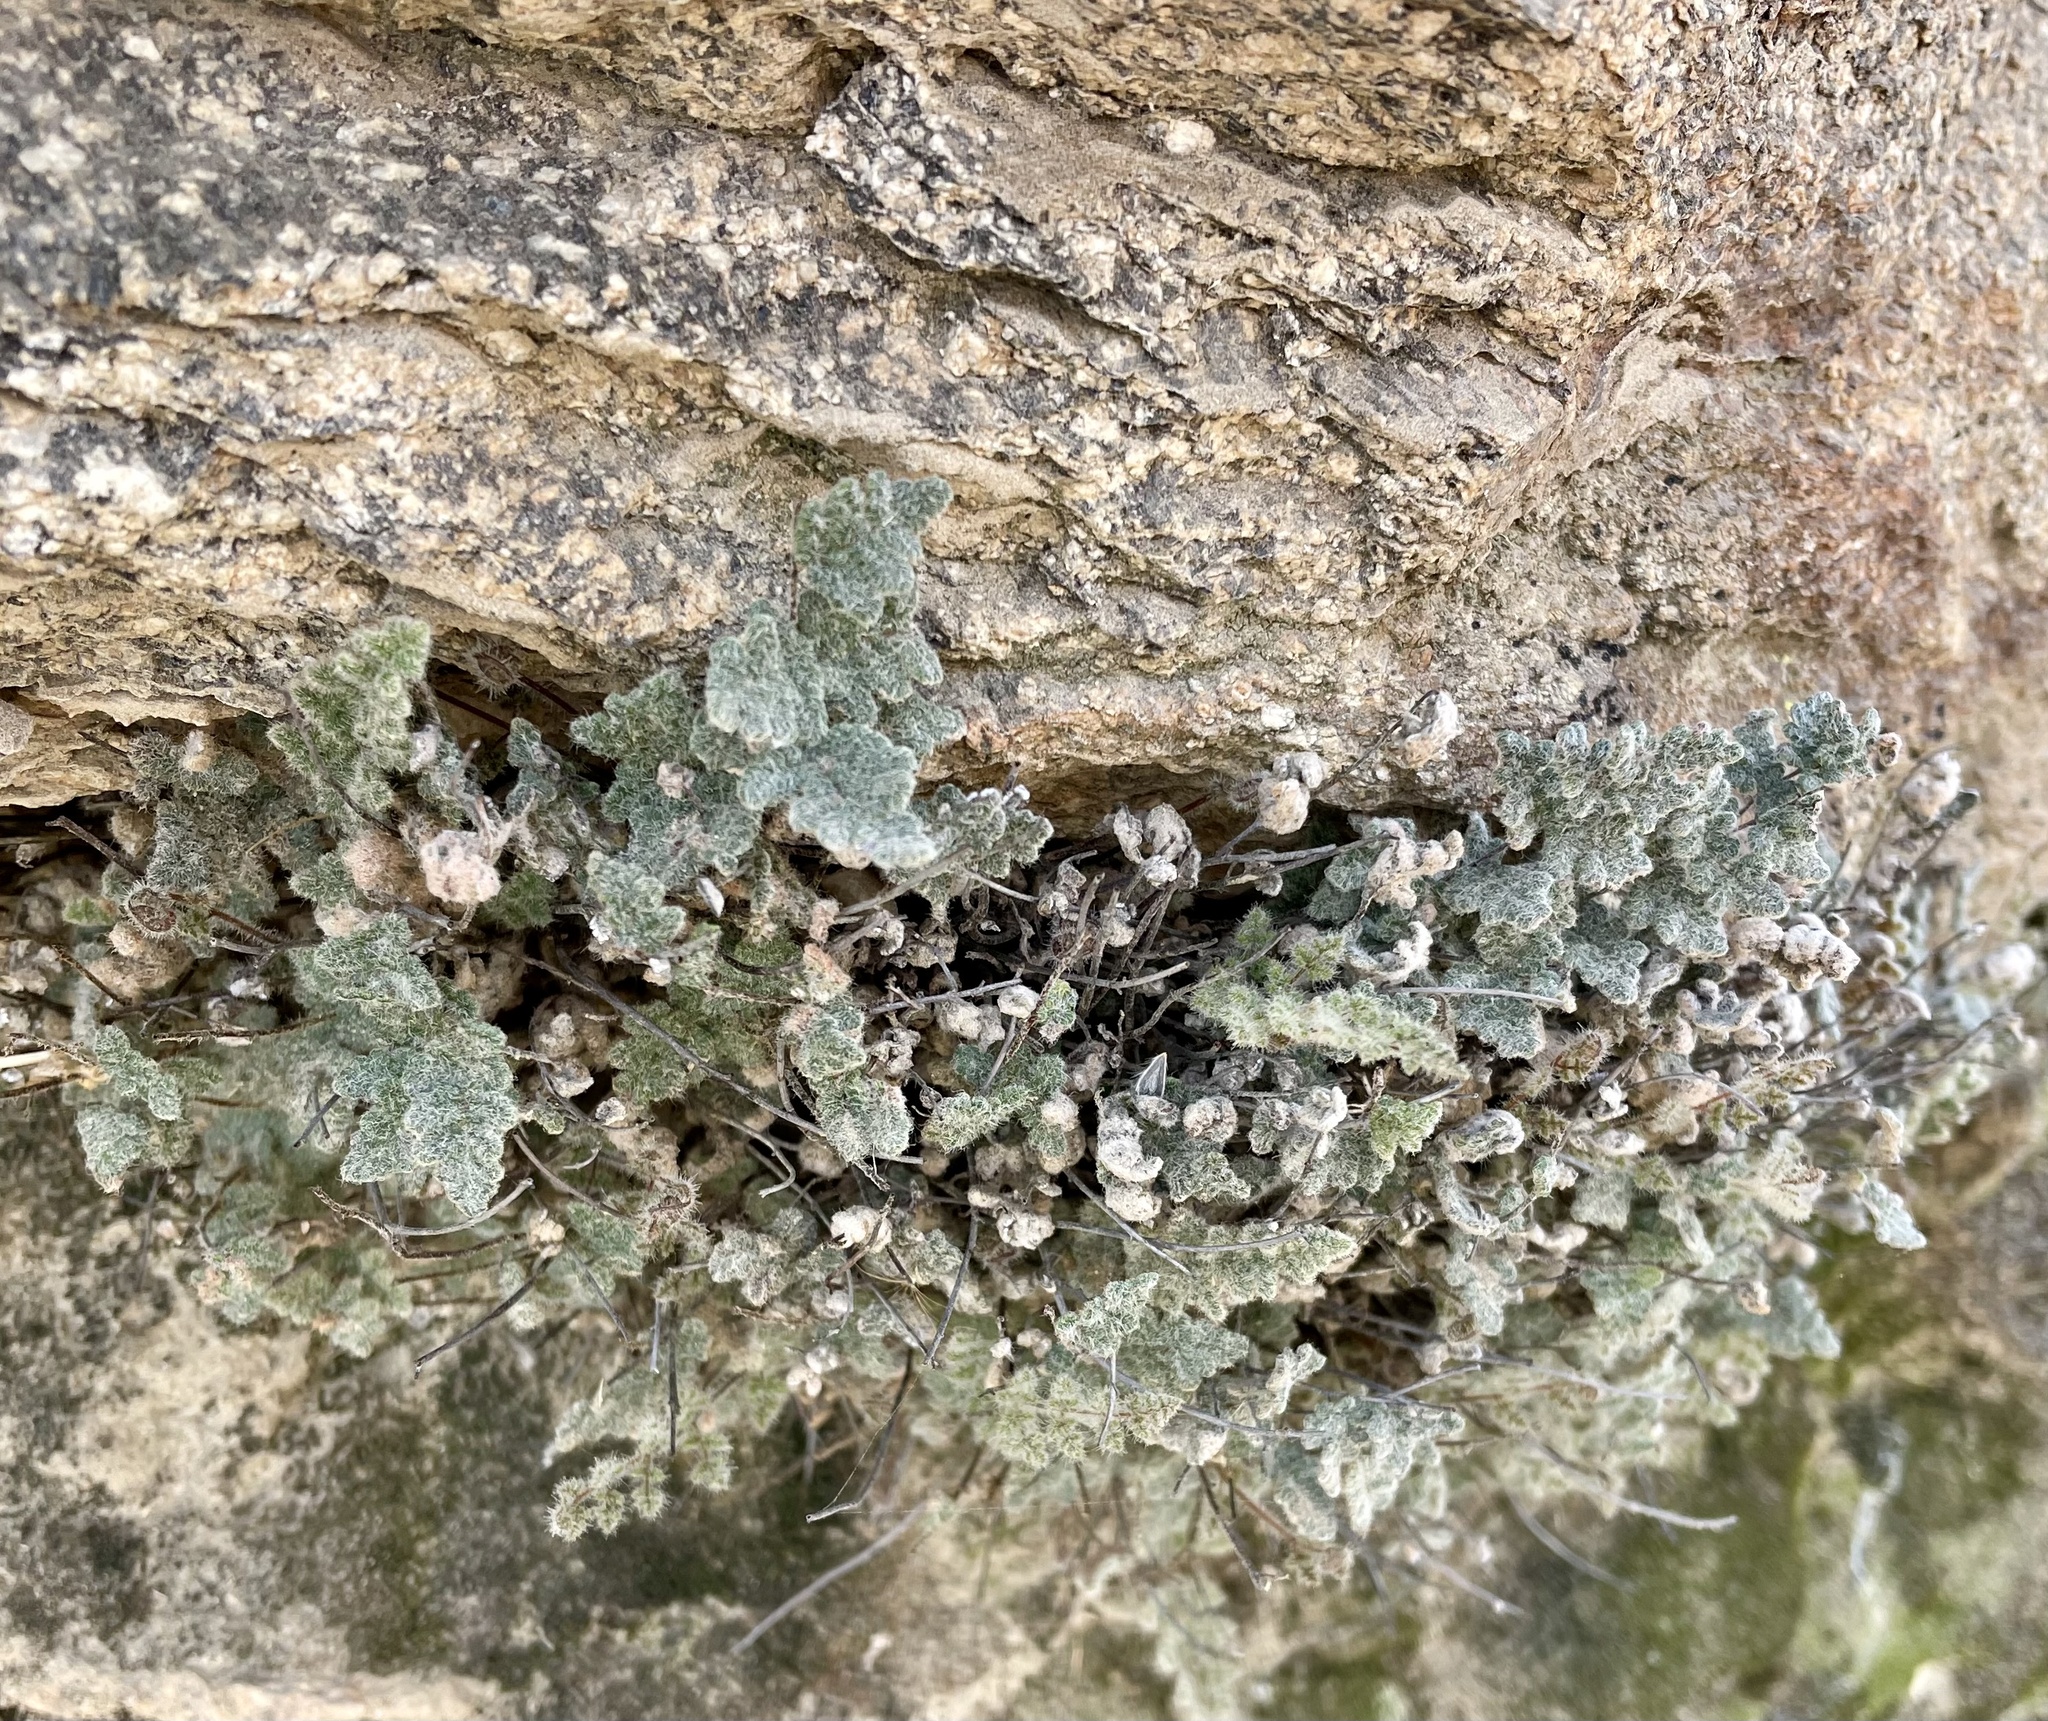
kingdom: Plantae
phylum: Tracheophyta
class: Polypodiopsida
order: Polypodiales
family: Pteridaceae
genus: Myriopteris
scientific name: Myriopteris parryi
